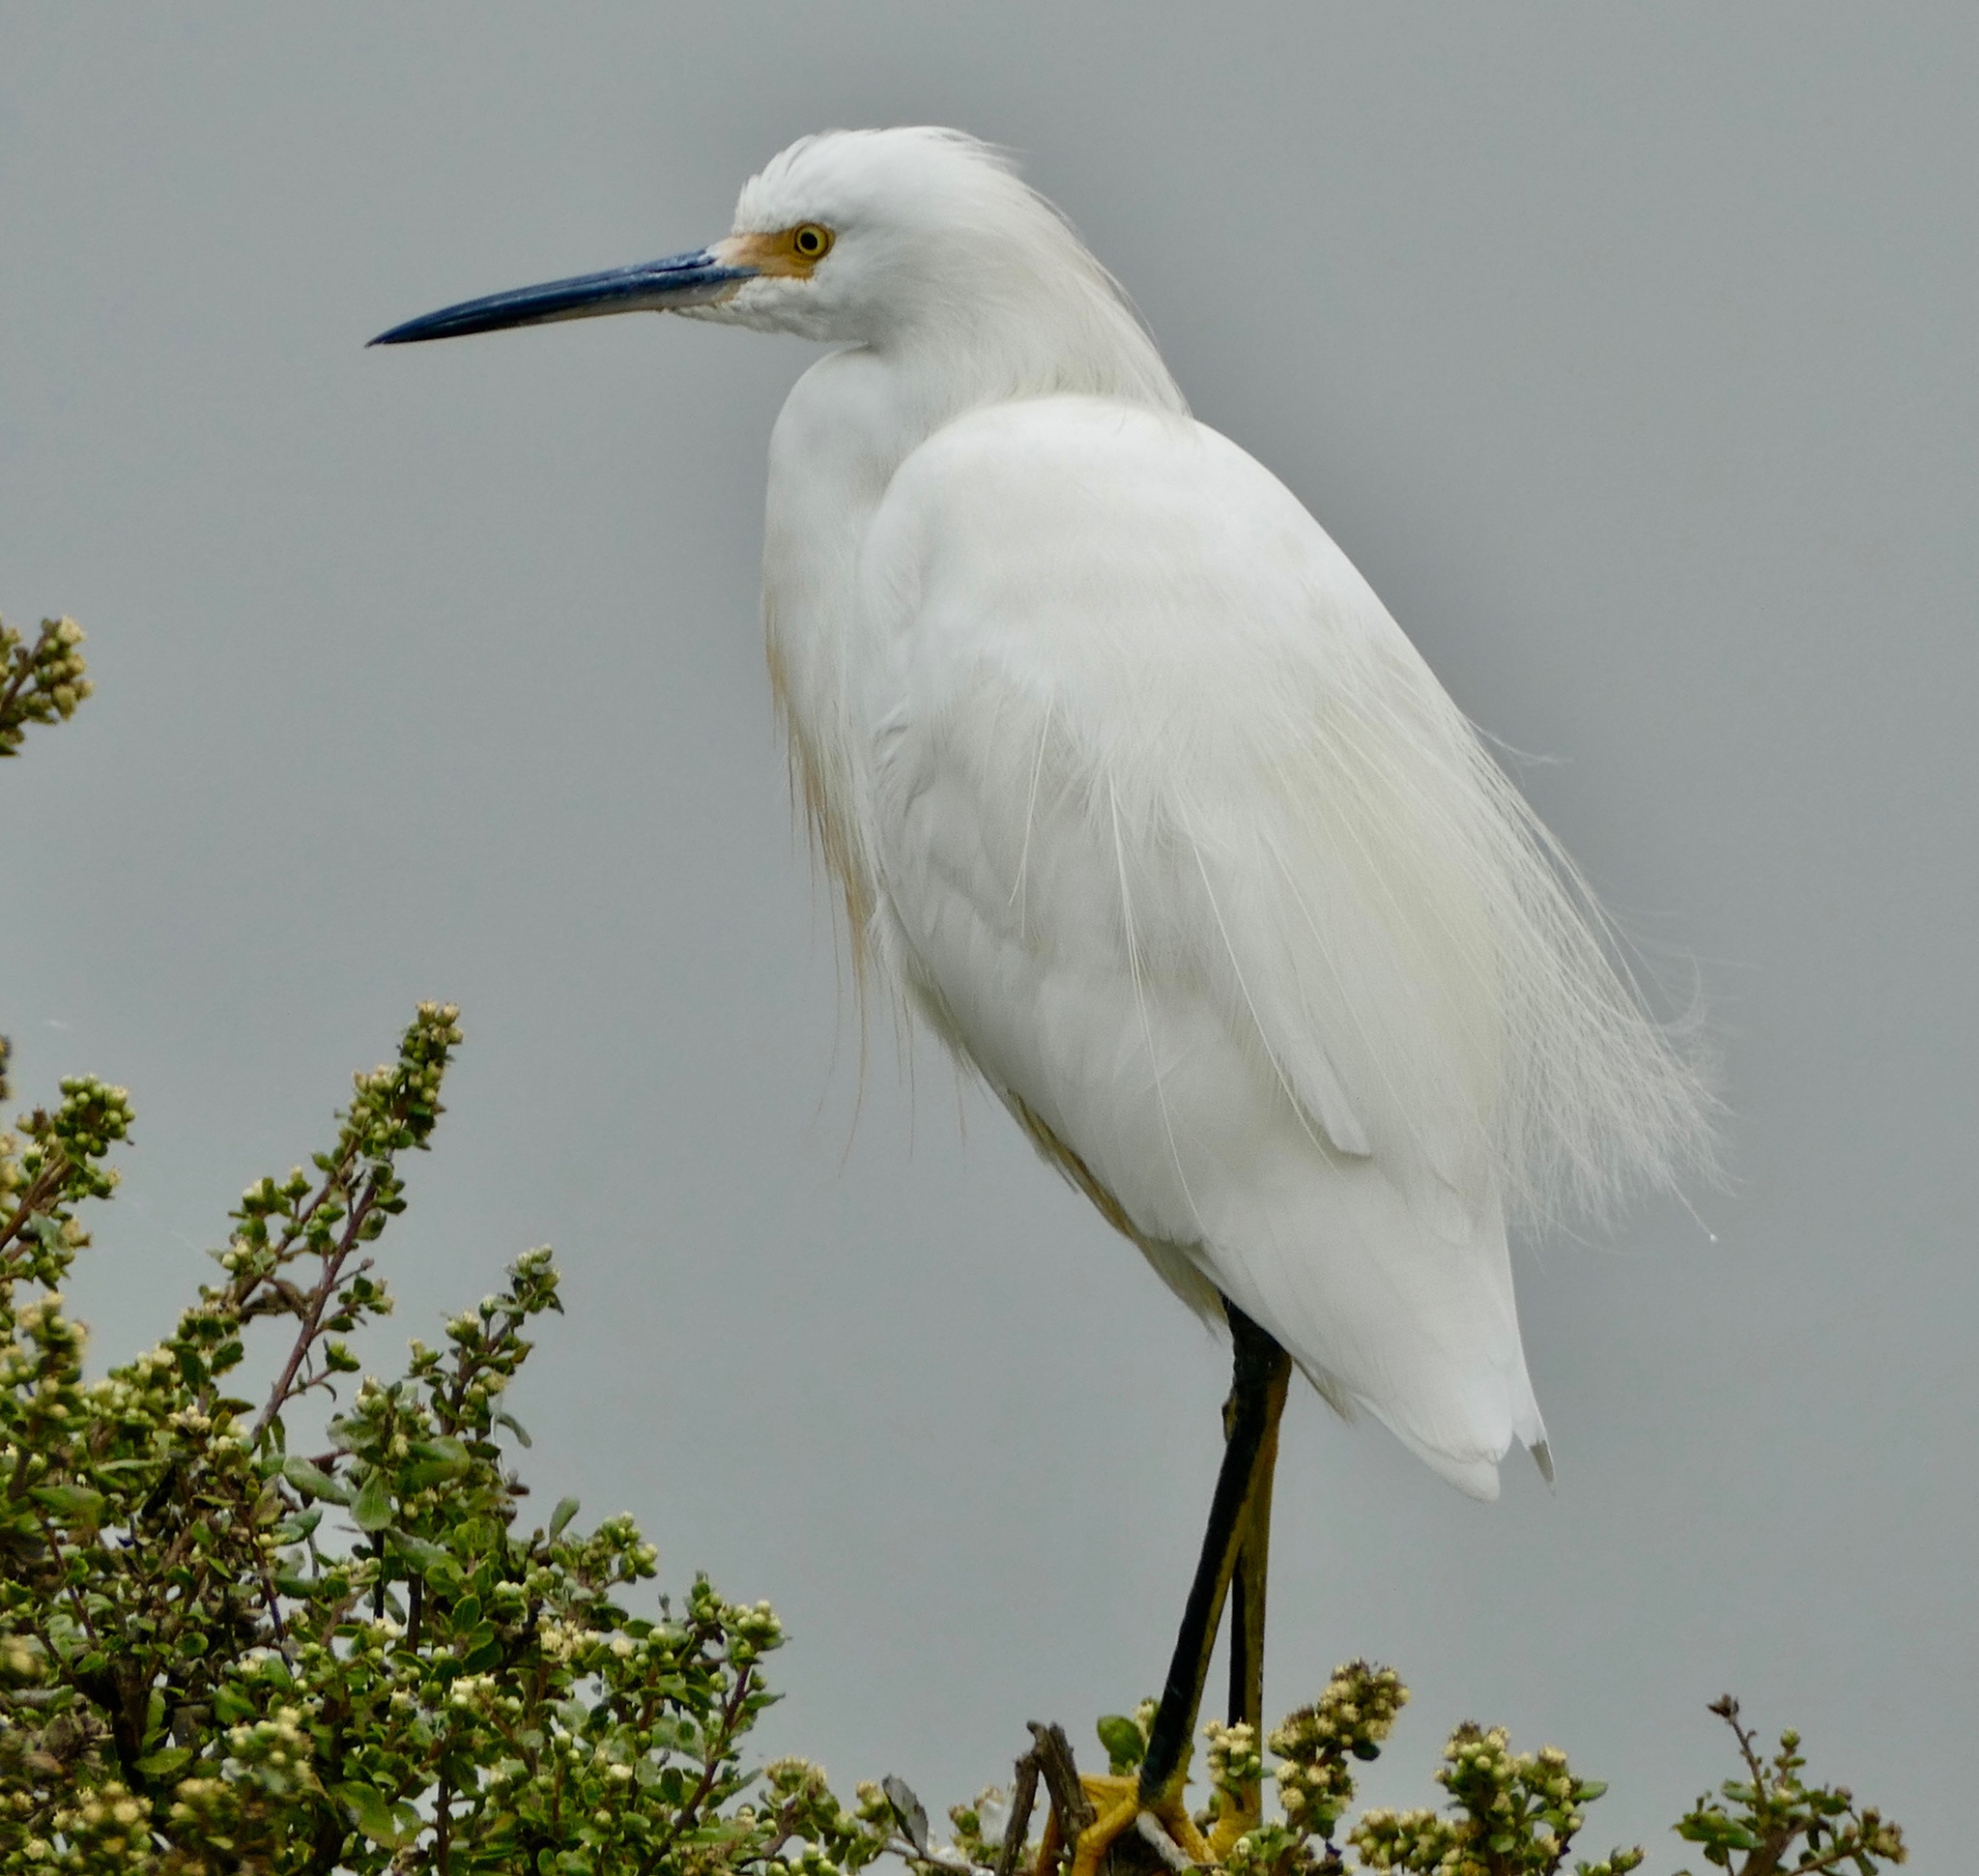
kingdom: Animalia
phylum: Chordata
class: Aves
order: Pelecaniformes
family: Ardeidae
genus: Egretta
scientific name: Egretta thula
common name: Snowy egret
